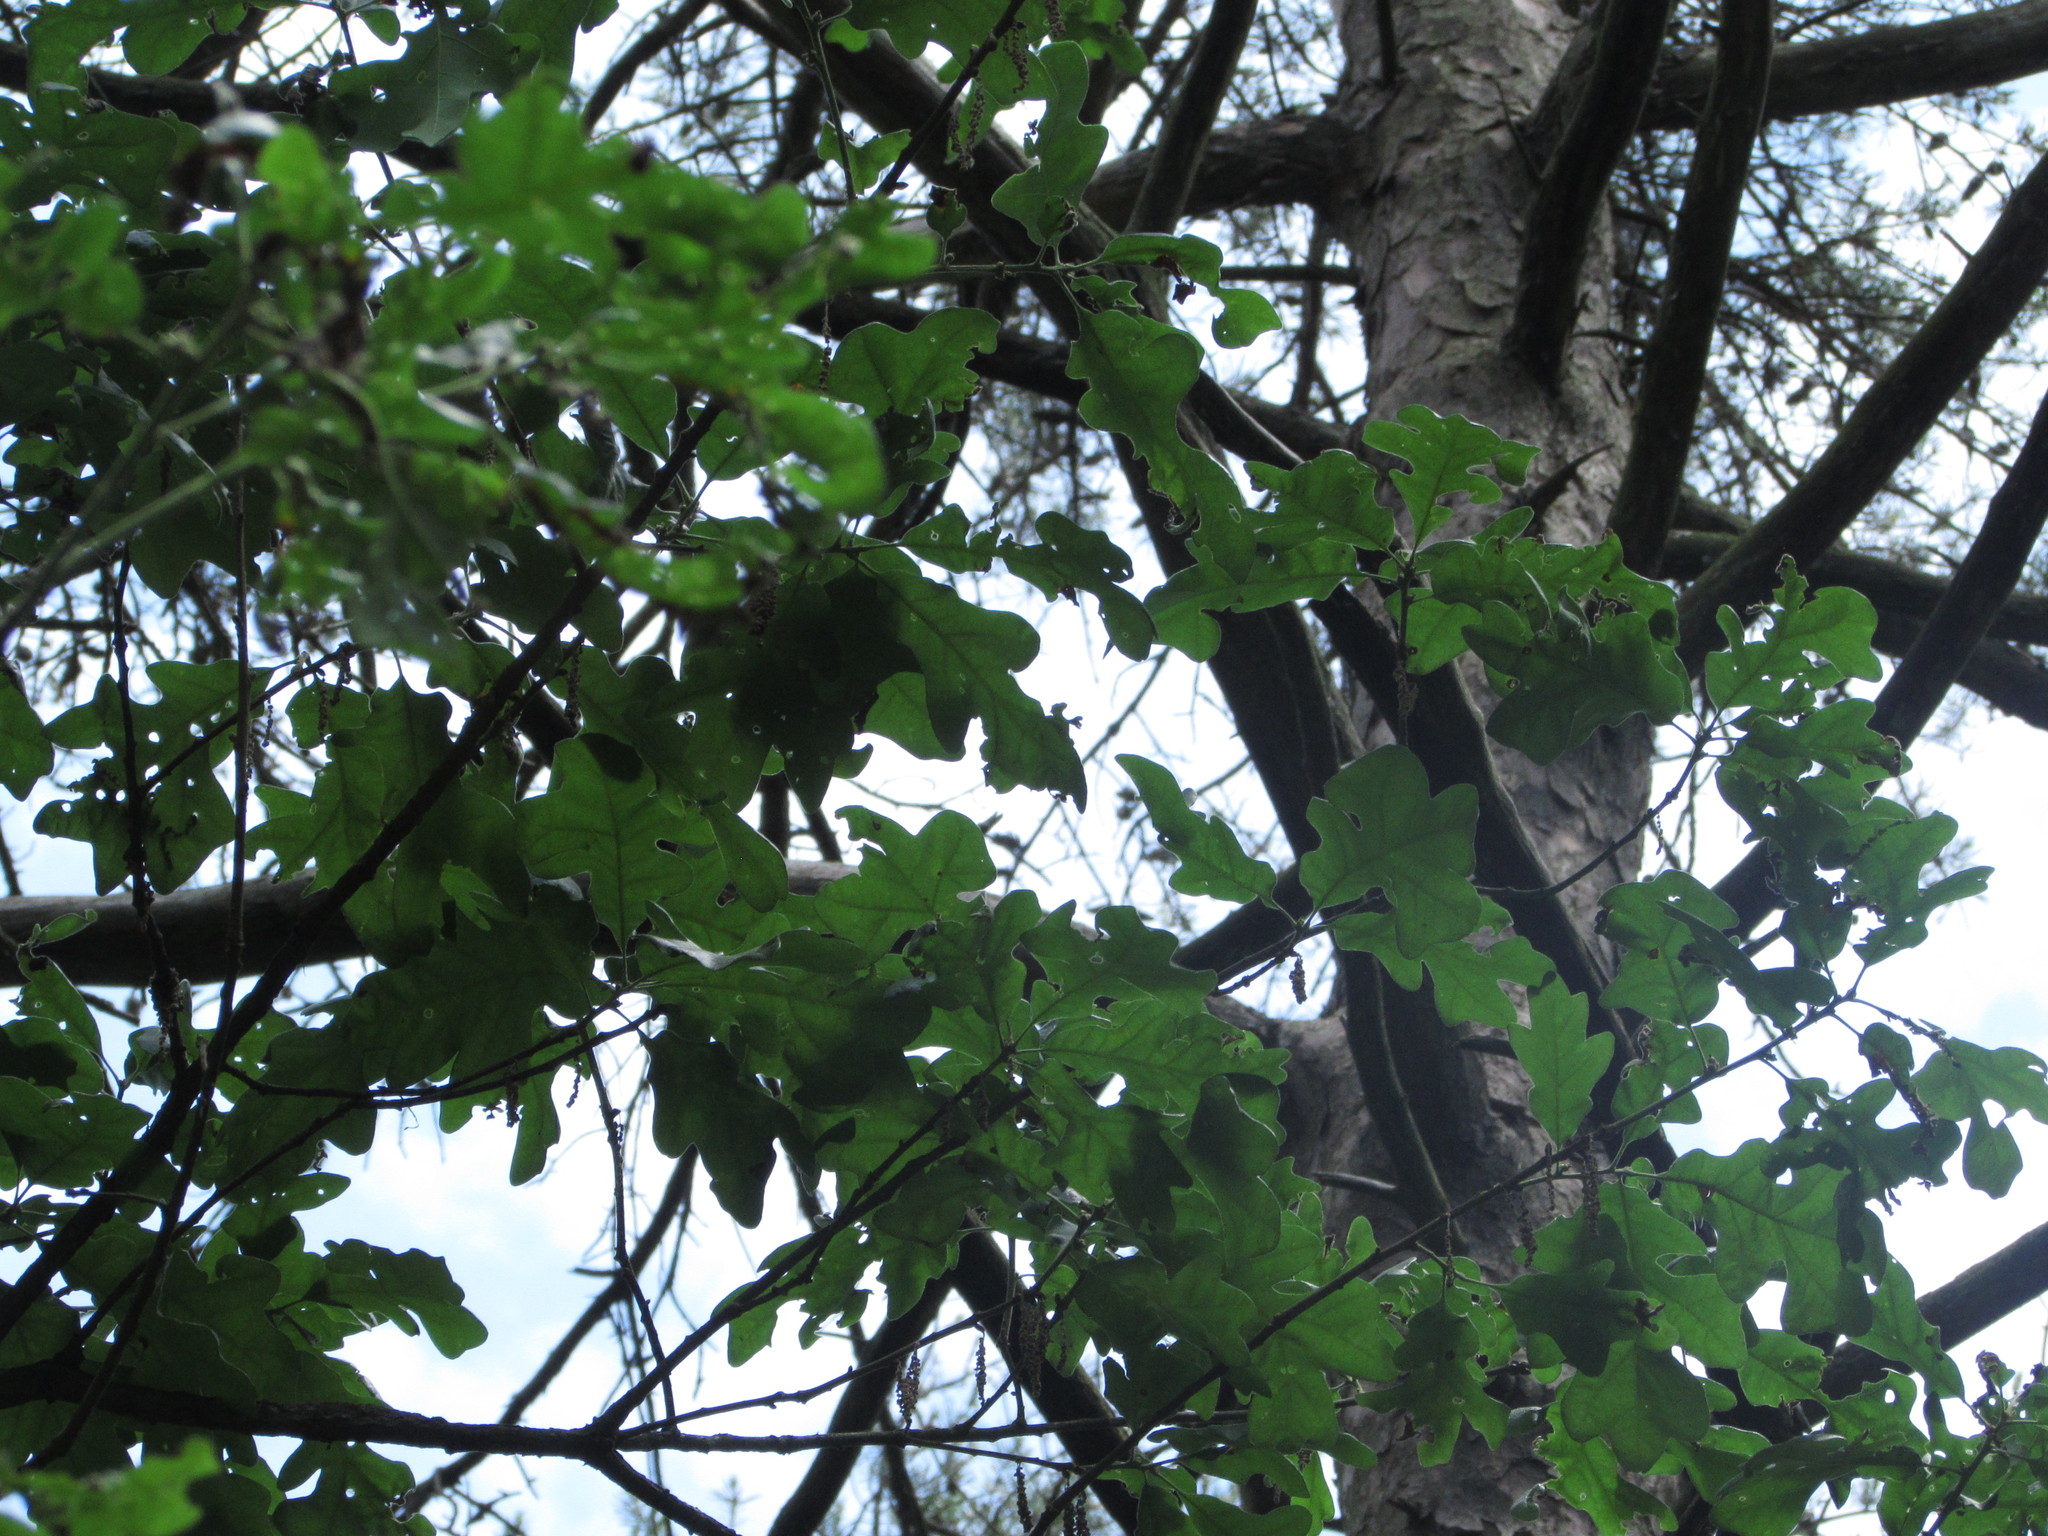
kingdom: Plantae
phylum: Tracheophyta
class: Magnoliopsida
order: Fagales
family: Fagaceae
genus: Quercus
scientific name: Quercus stellata
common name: Post oak
